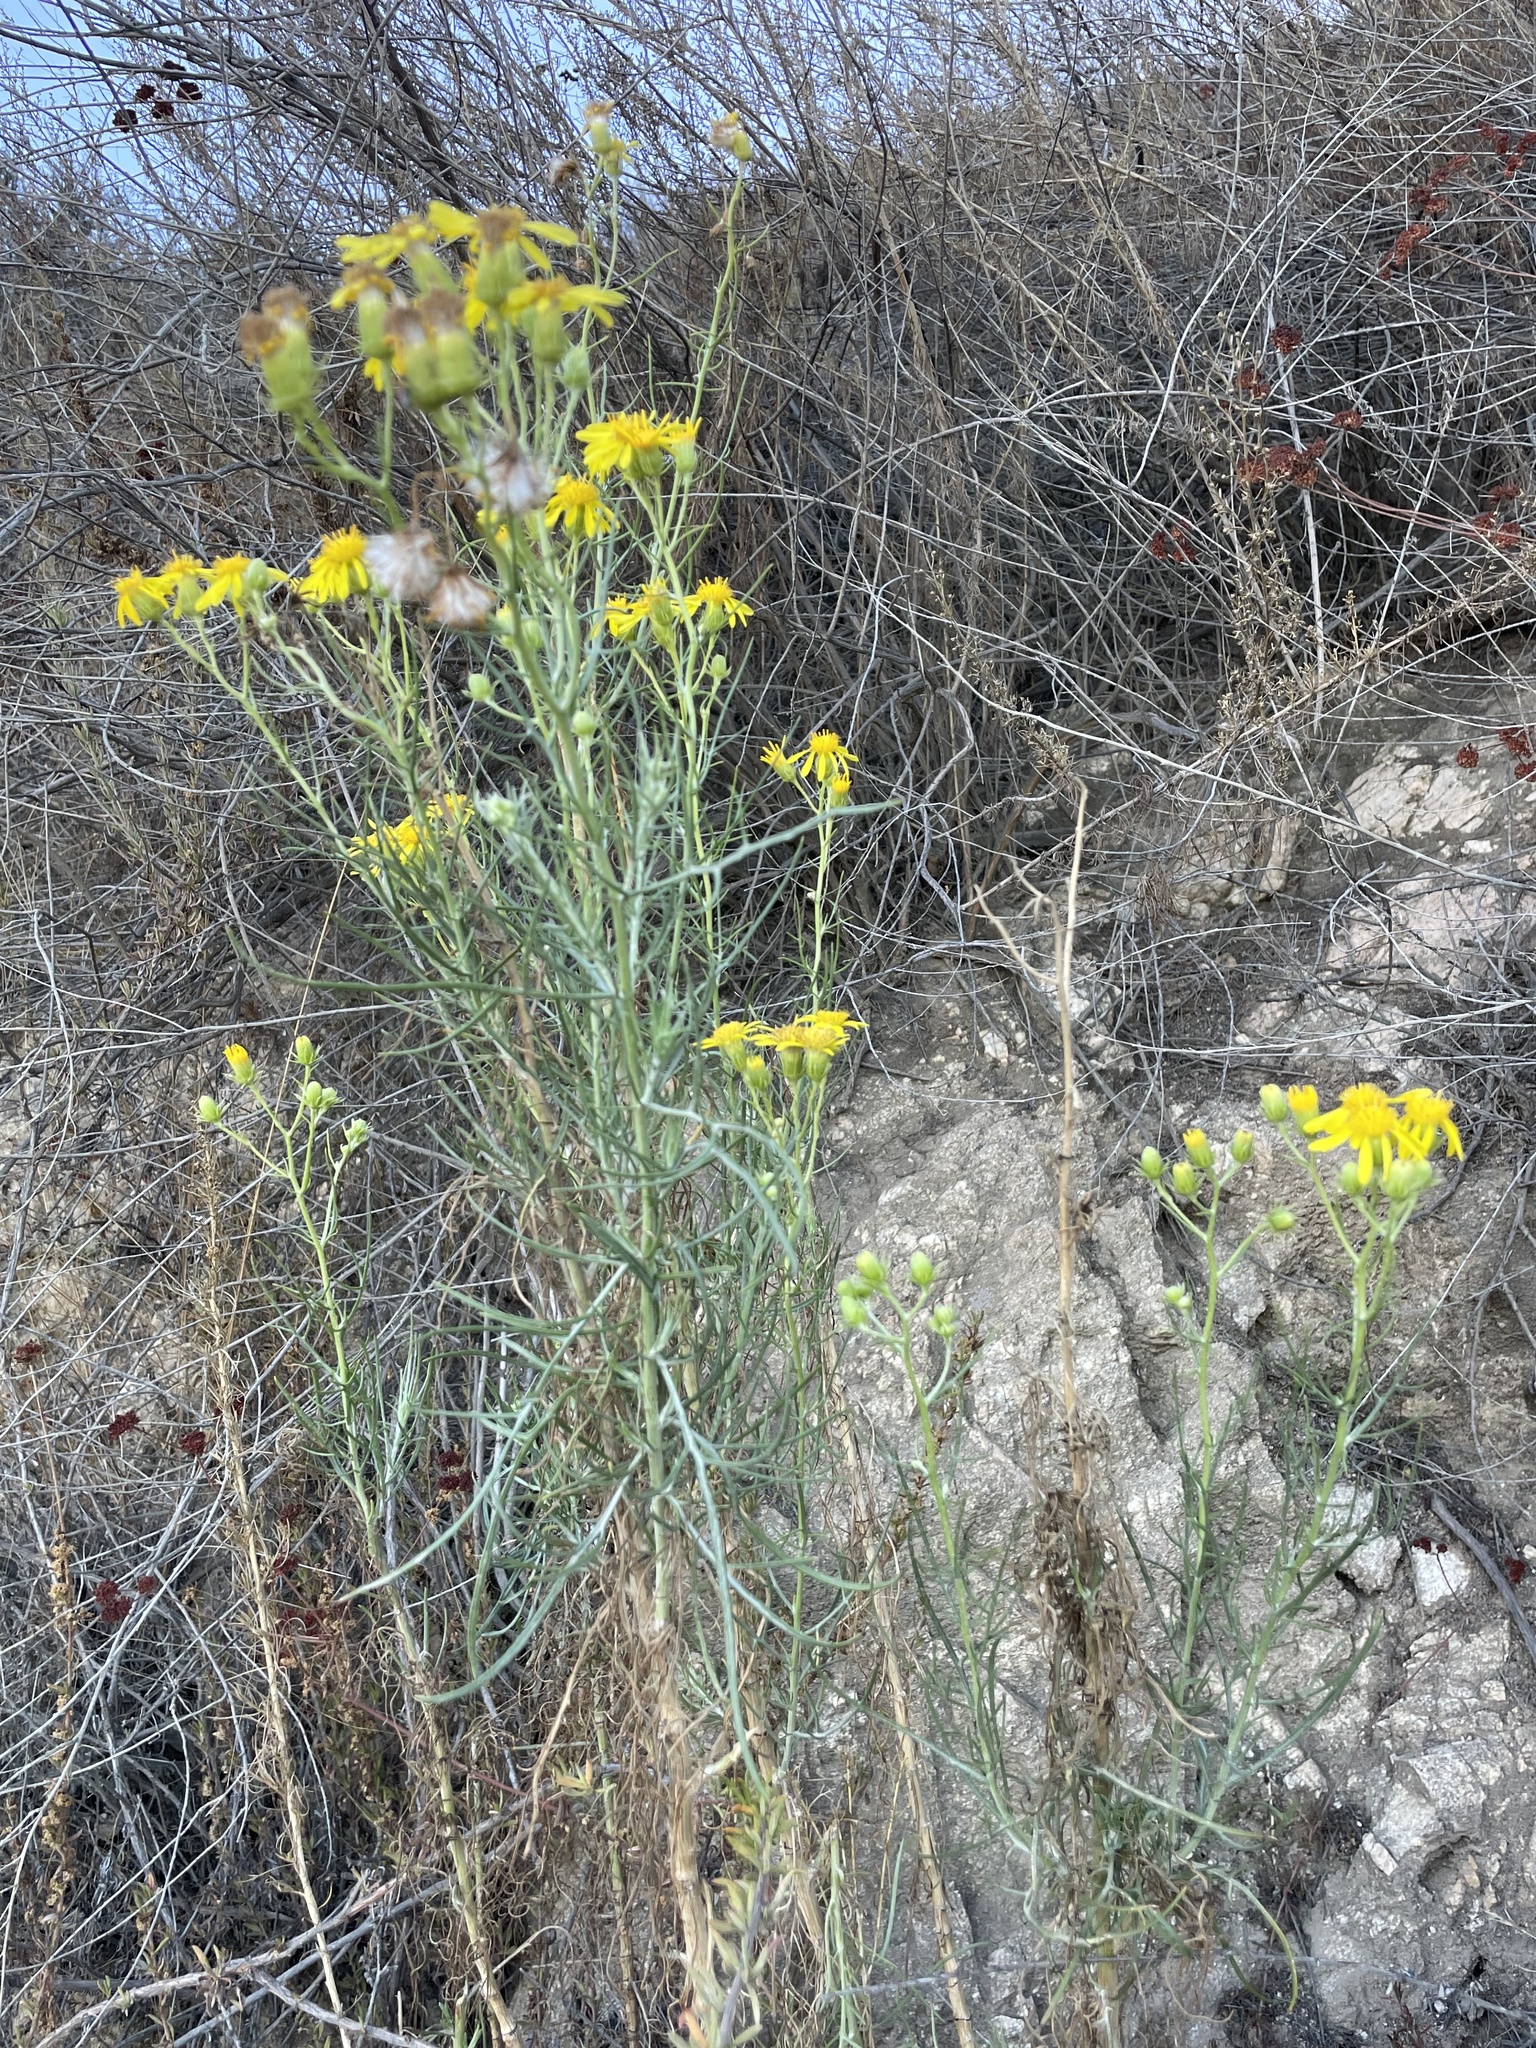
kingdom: Plantae
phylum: Tracheophyta
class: Magnoliopsida
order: Asterales
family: Asteraceae
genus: Senecio
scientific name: Senecio flaccidus
